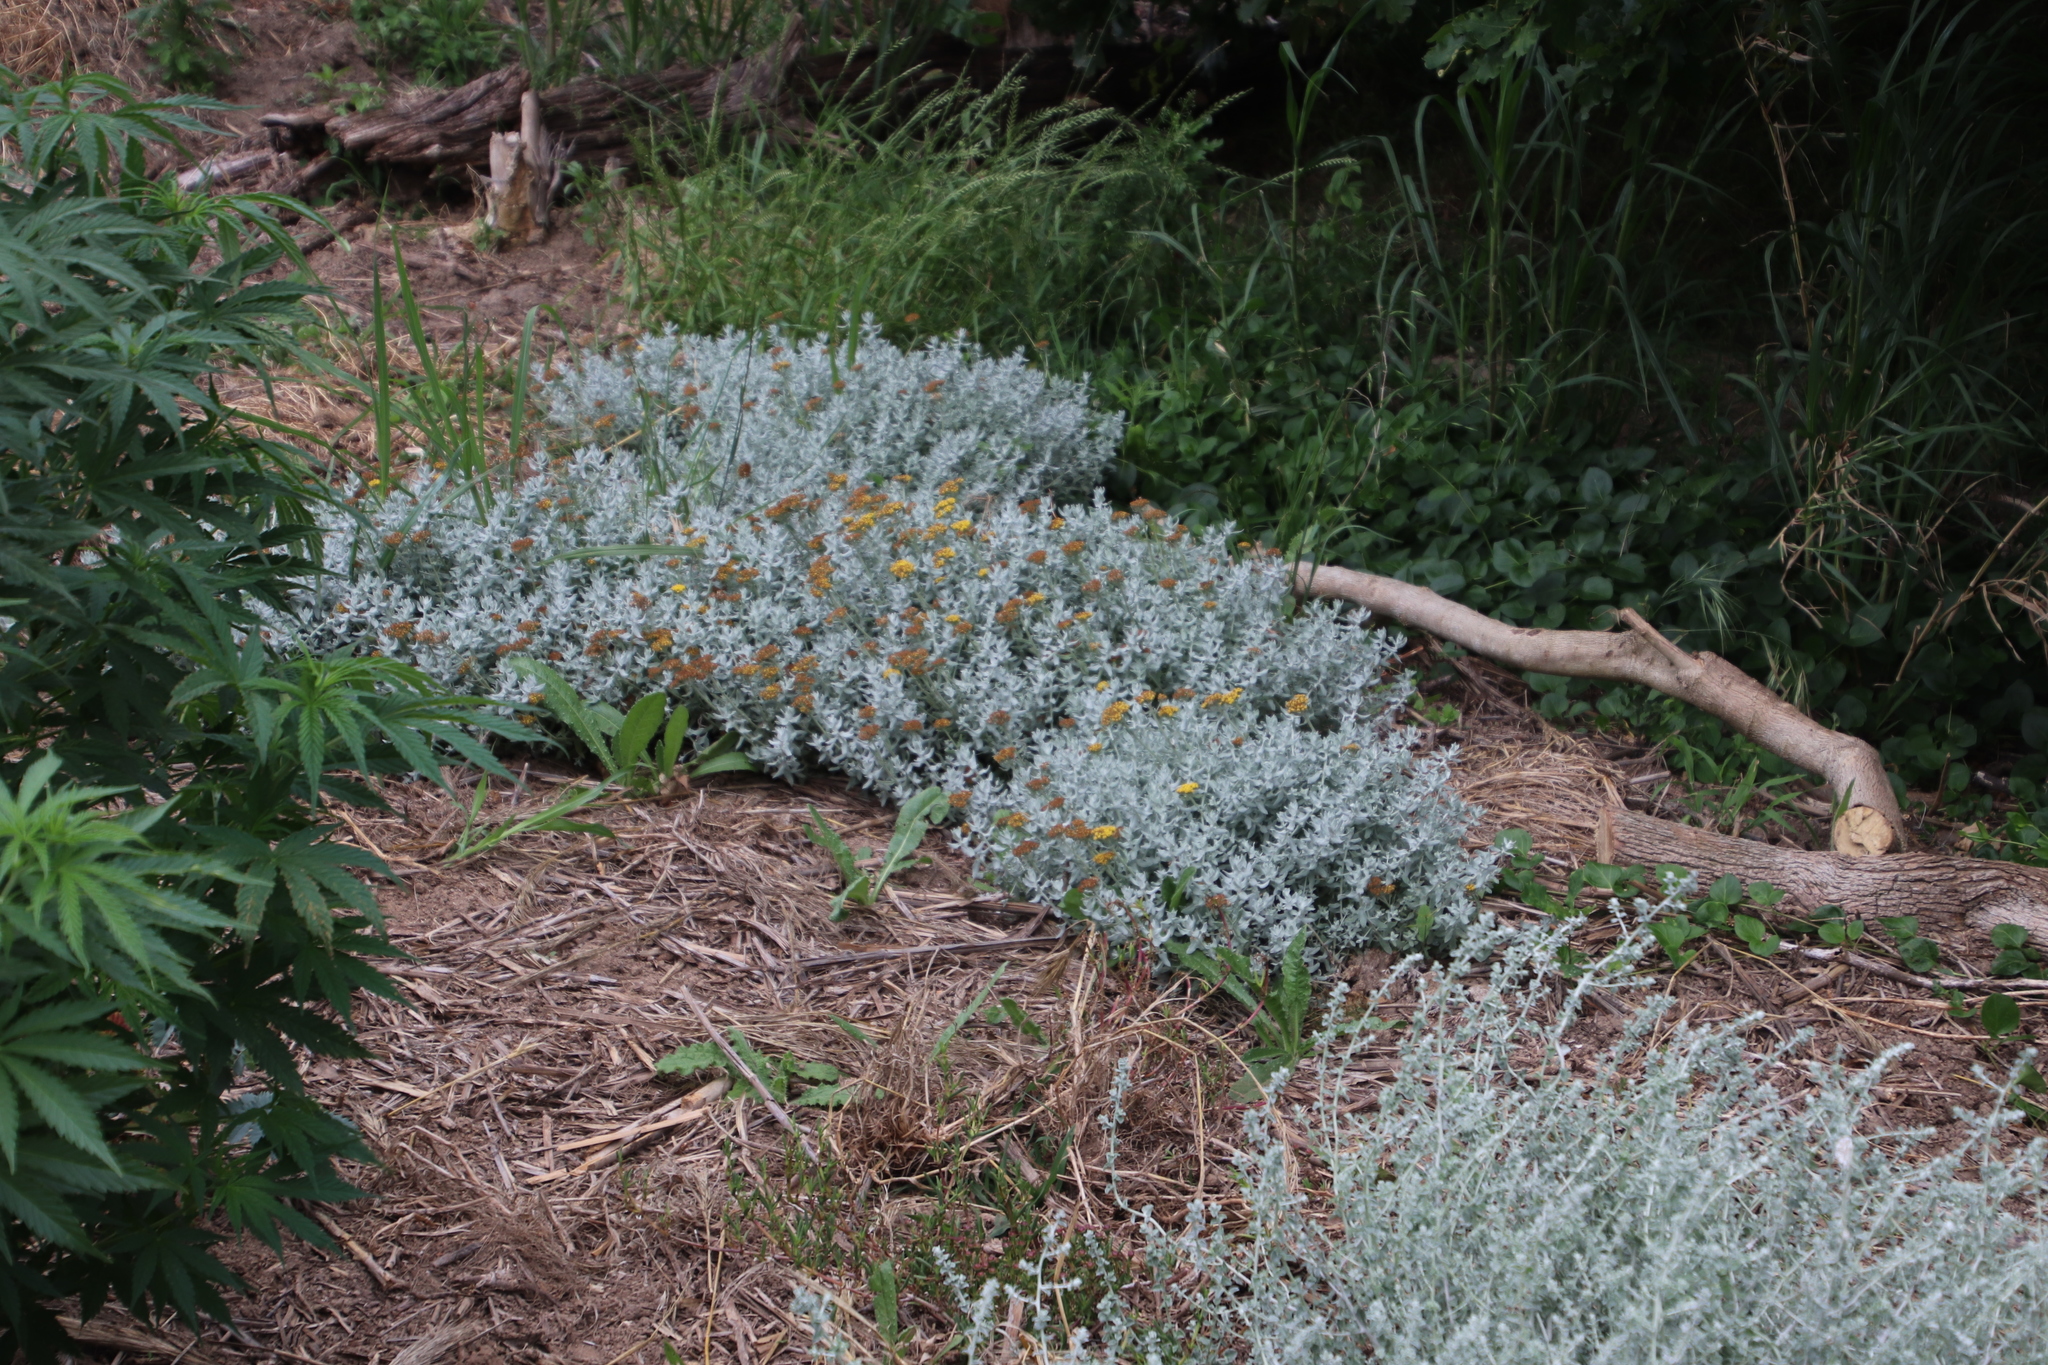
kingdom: Plantae
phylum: Tracheophyta
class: Magnoliopsida
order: Asterales
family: Asteraceae
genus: Helichrysum
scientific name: Helichrysum dasyanthum
